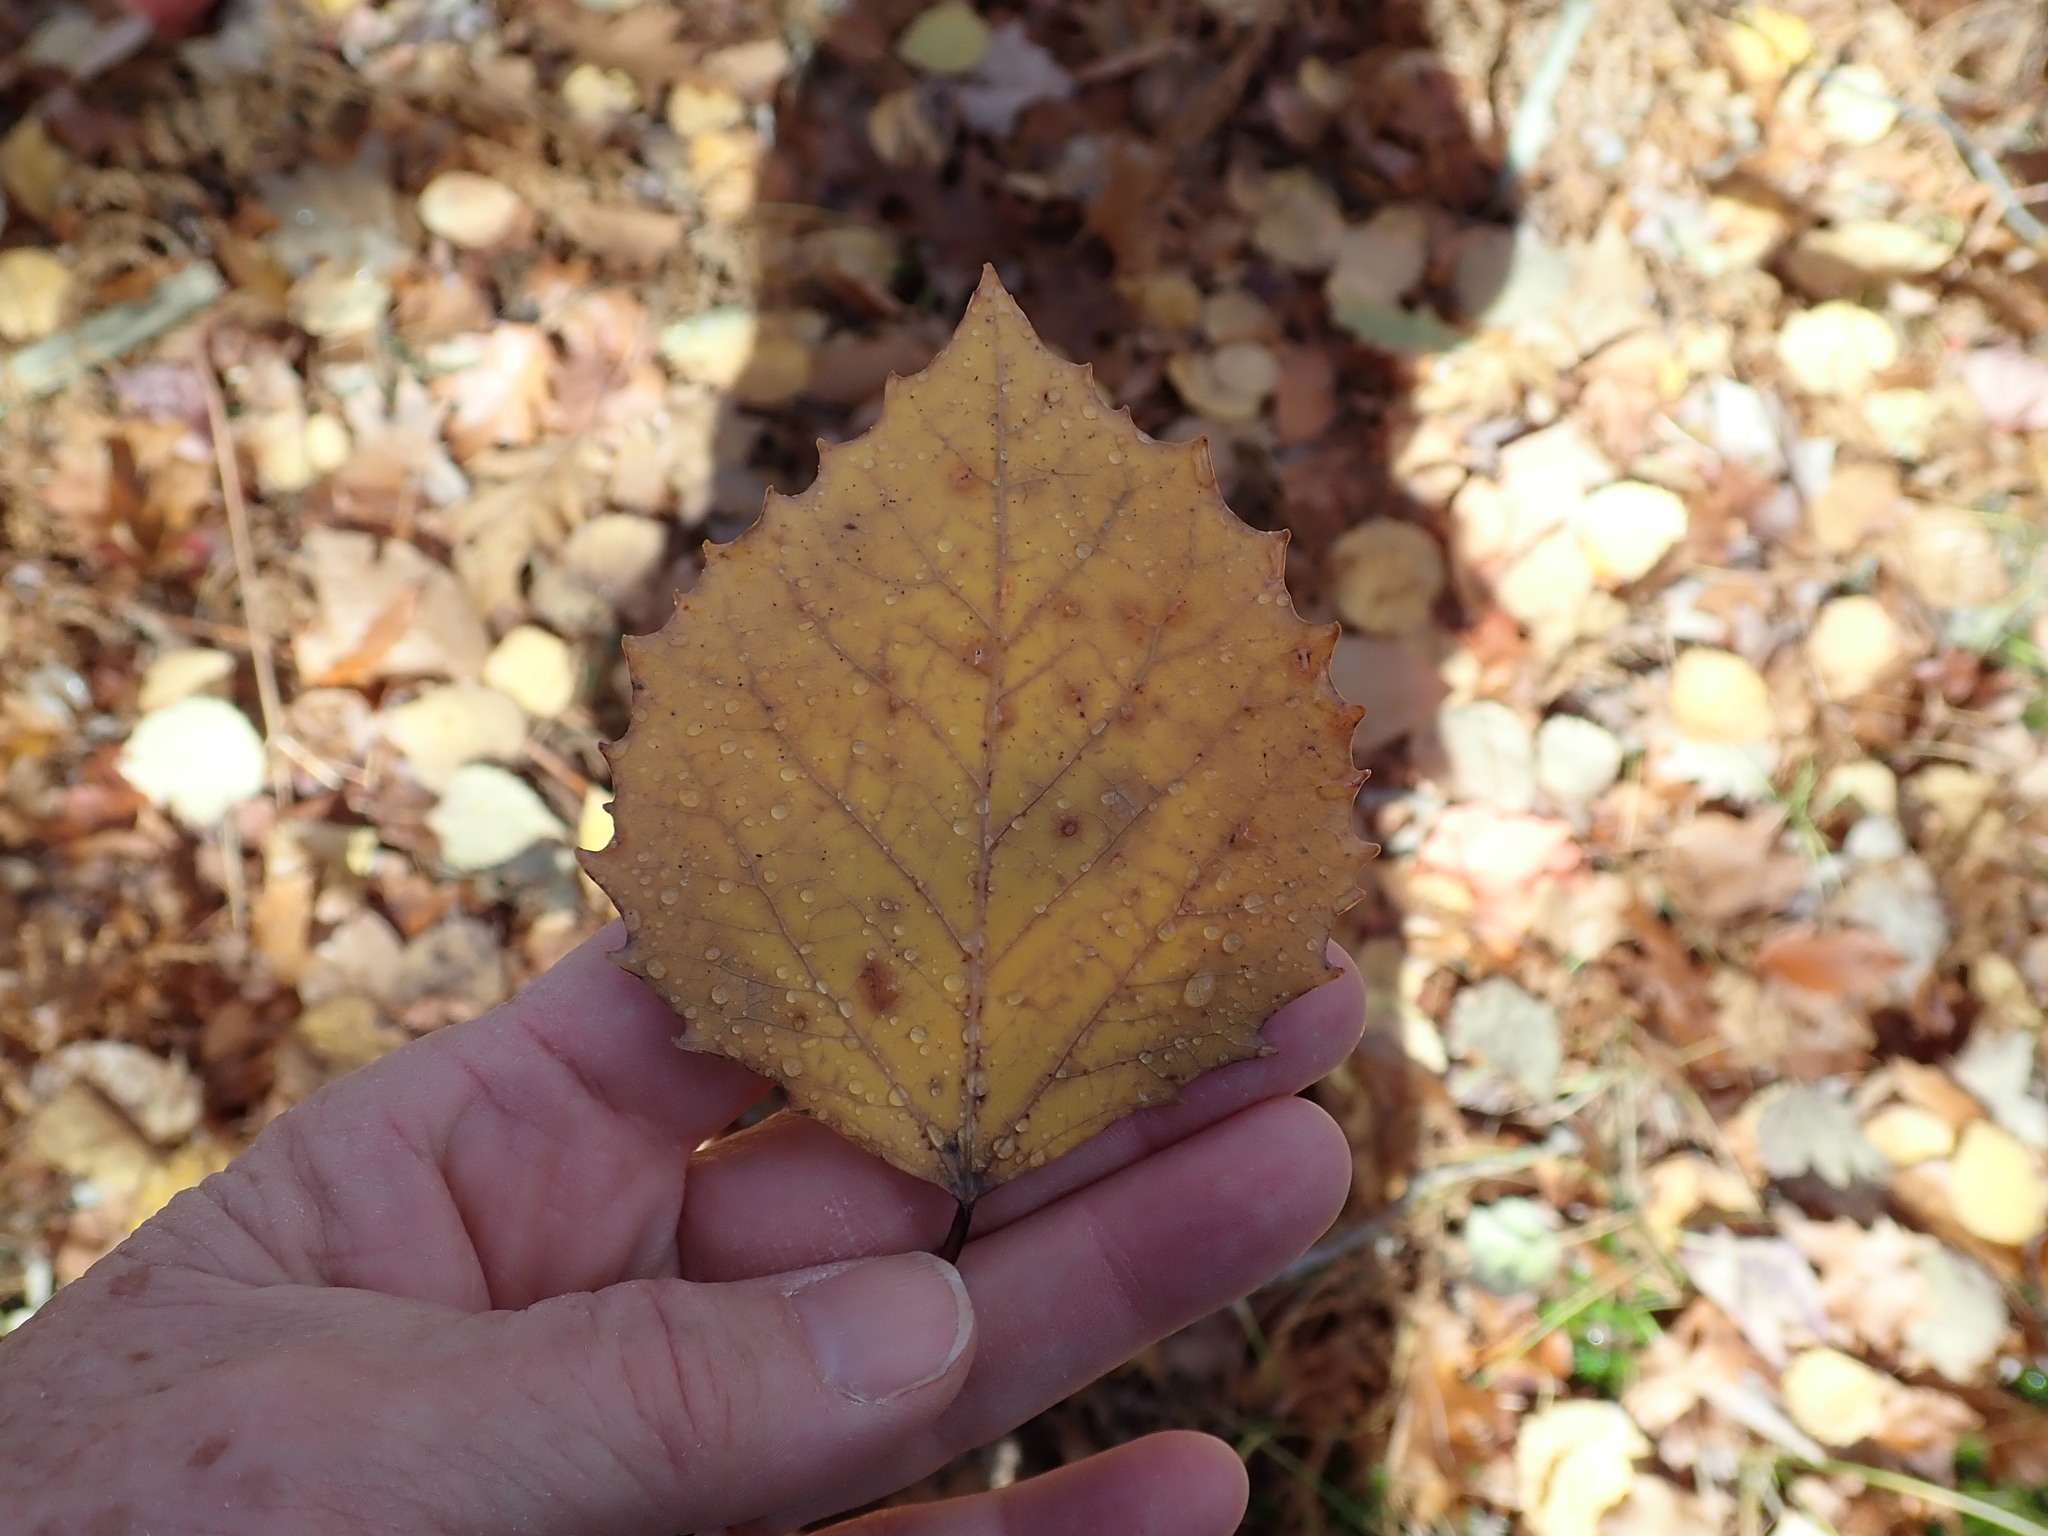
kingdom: Plantae
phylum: Tracheophyta
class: Magnoliopsida
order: Malpighiales
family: Salicaceae
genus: Populus
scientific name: Populus grandidentata
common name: Bigtooth aspen
